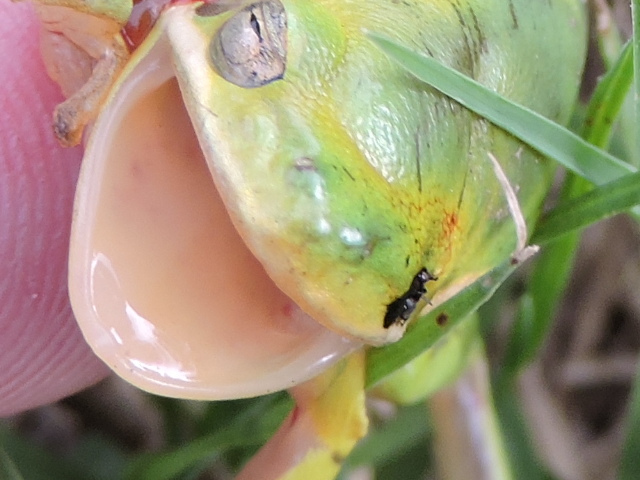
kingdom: Animalia
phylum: Chordata
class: Amphibia
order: Anura
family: Hylidae
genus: Dryophytes
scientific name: Dryophytes cinereus
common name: Green treefrog
